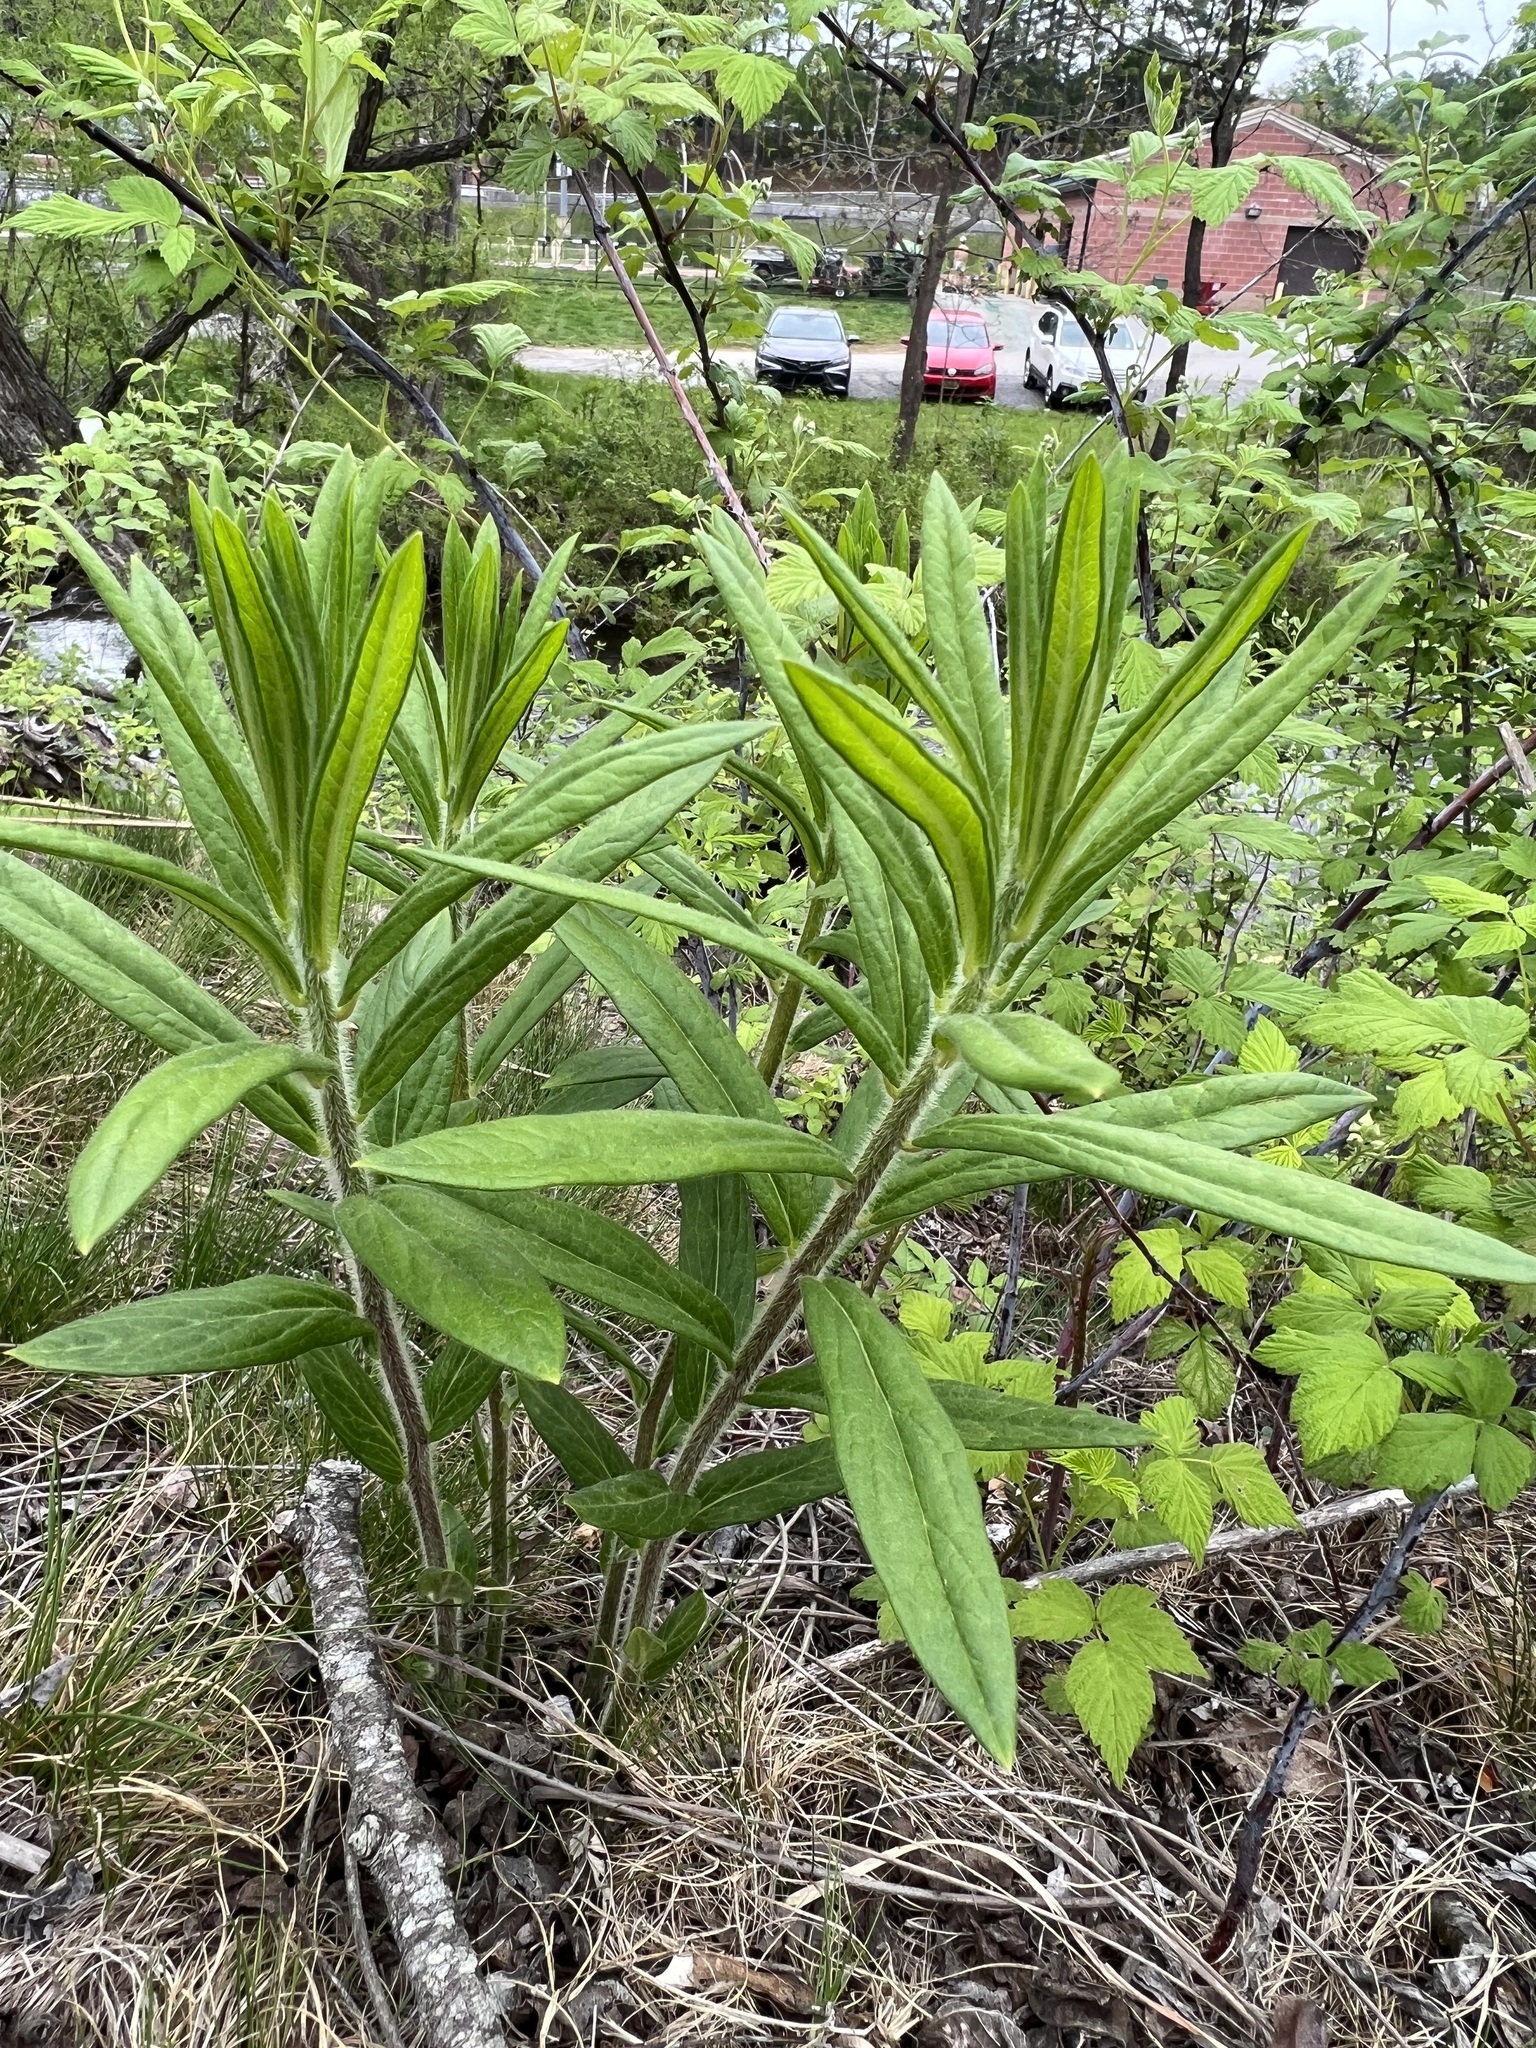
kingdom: Plantae
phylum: Tracheophyta
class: Magnoliopsida
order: Gentianales
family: Apocynaceae
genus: Asclepias
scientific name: Asclepias tuberosa
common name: Butterfly milkweed
